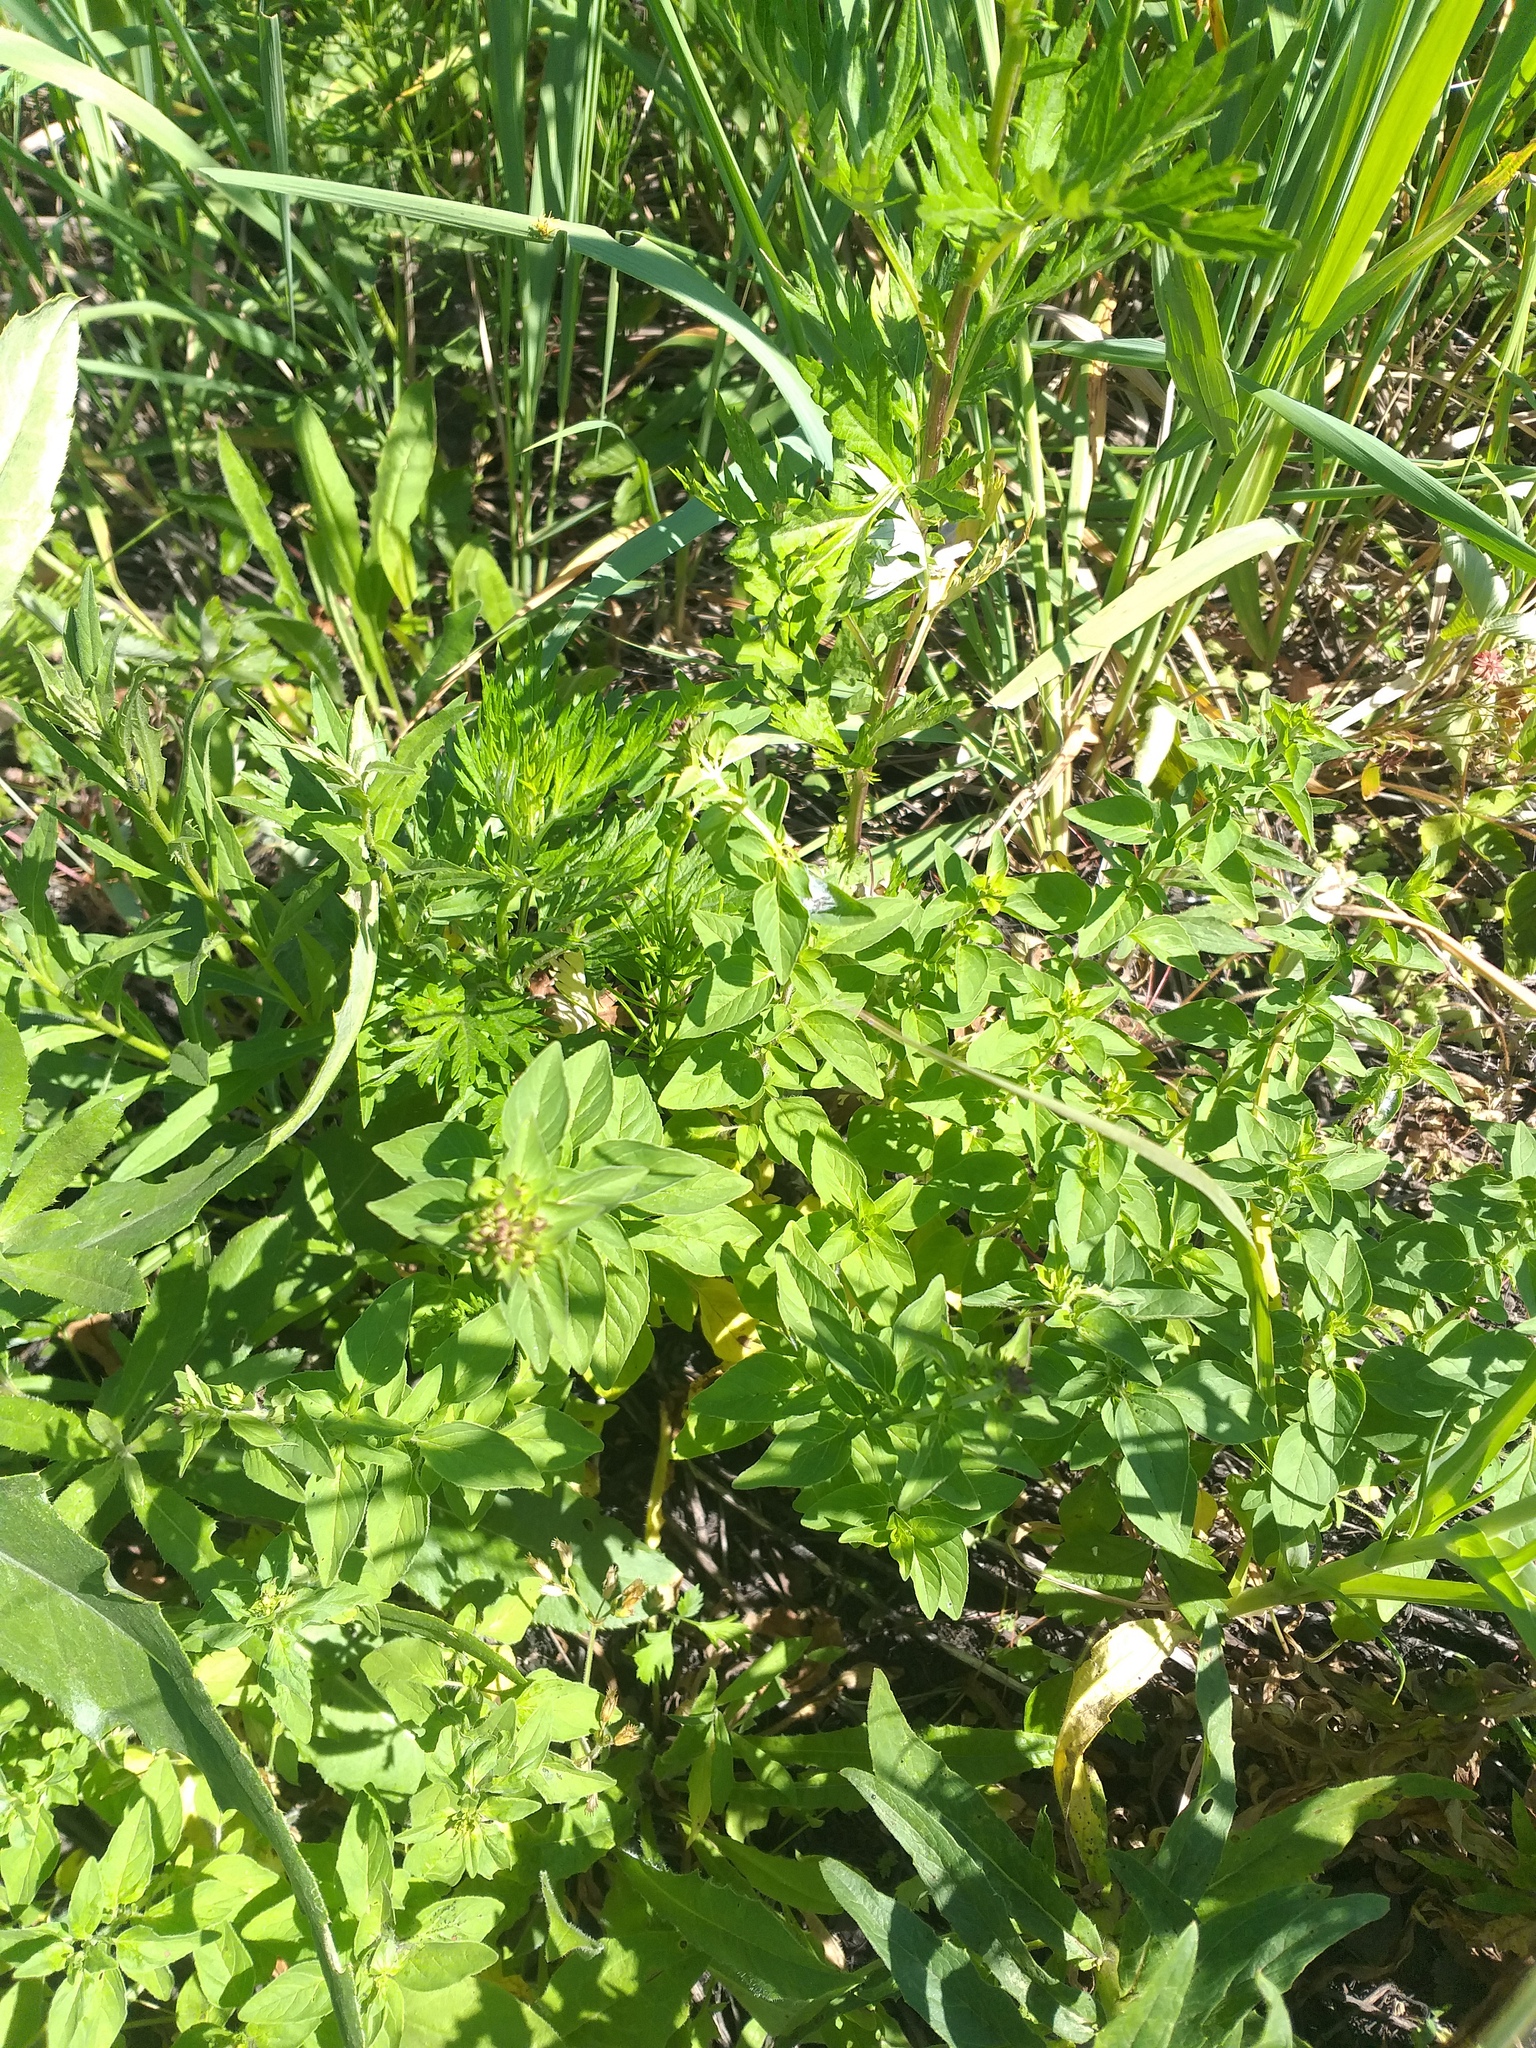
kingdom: Plantae
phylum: Tracheophyta
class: Magnoliopsida
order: Lamiales
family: Lamiaceae
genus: Origanum
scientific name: Origanum vulgare
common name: Wild marjoram
